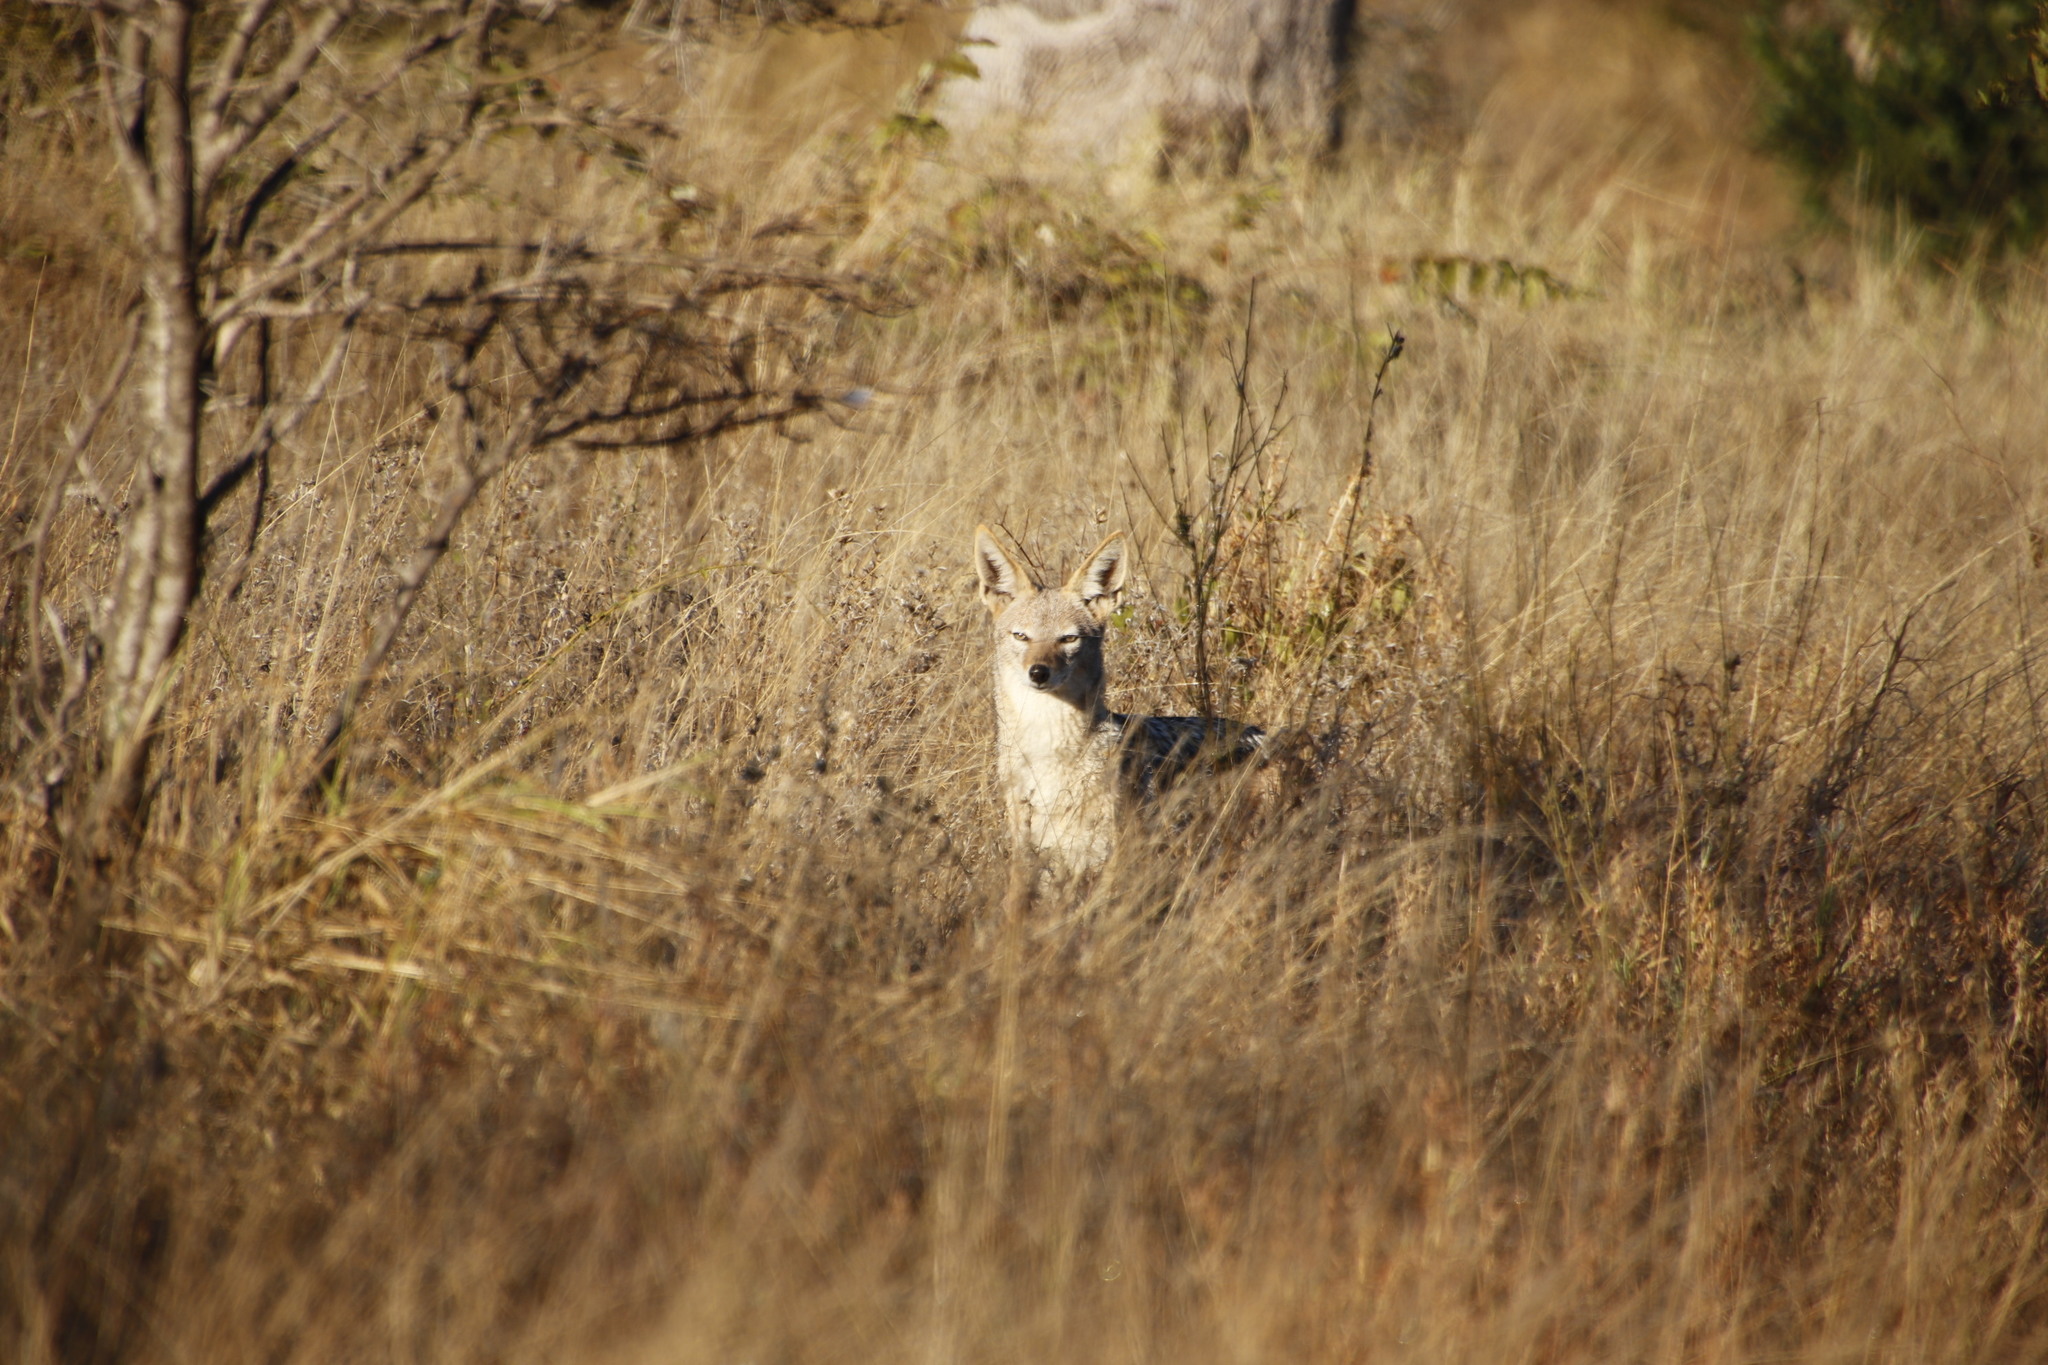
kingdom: Animalia
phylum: Chordata
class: Mammalia
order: Carnivora
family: Canidae
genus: Lupulella
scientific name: Lupulella
